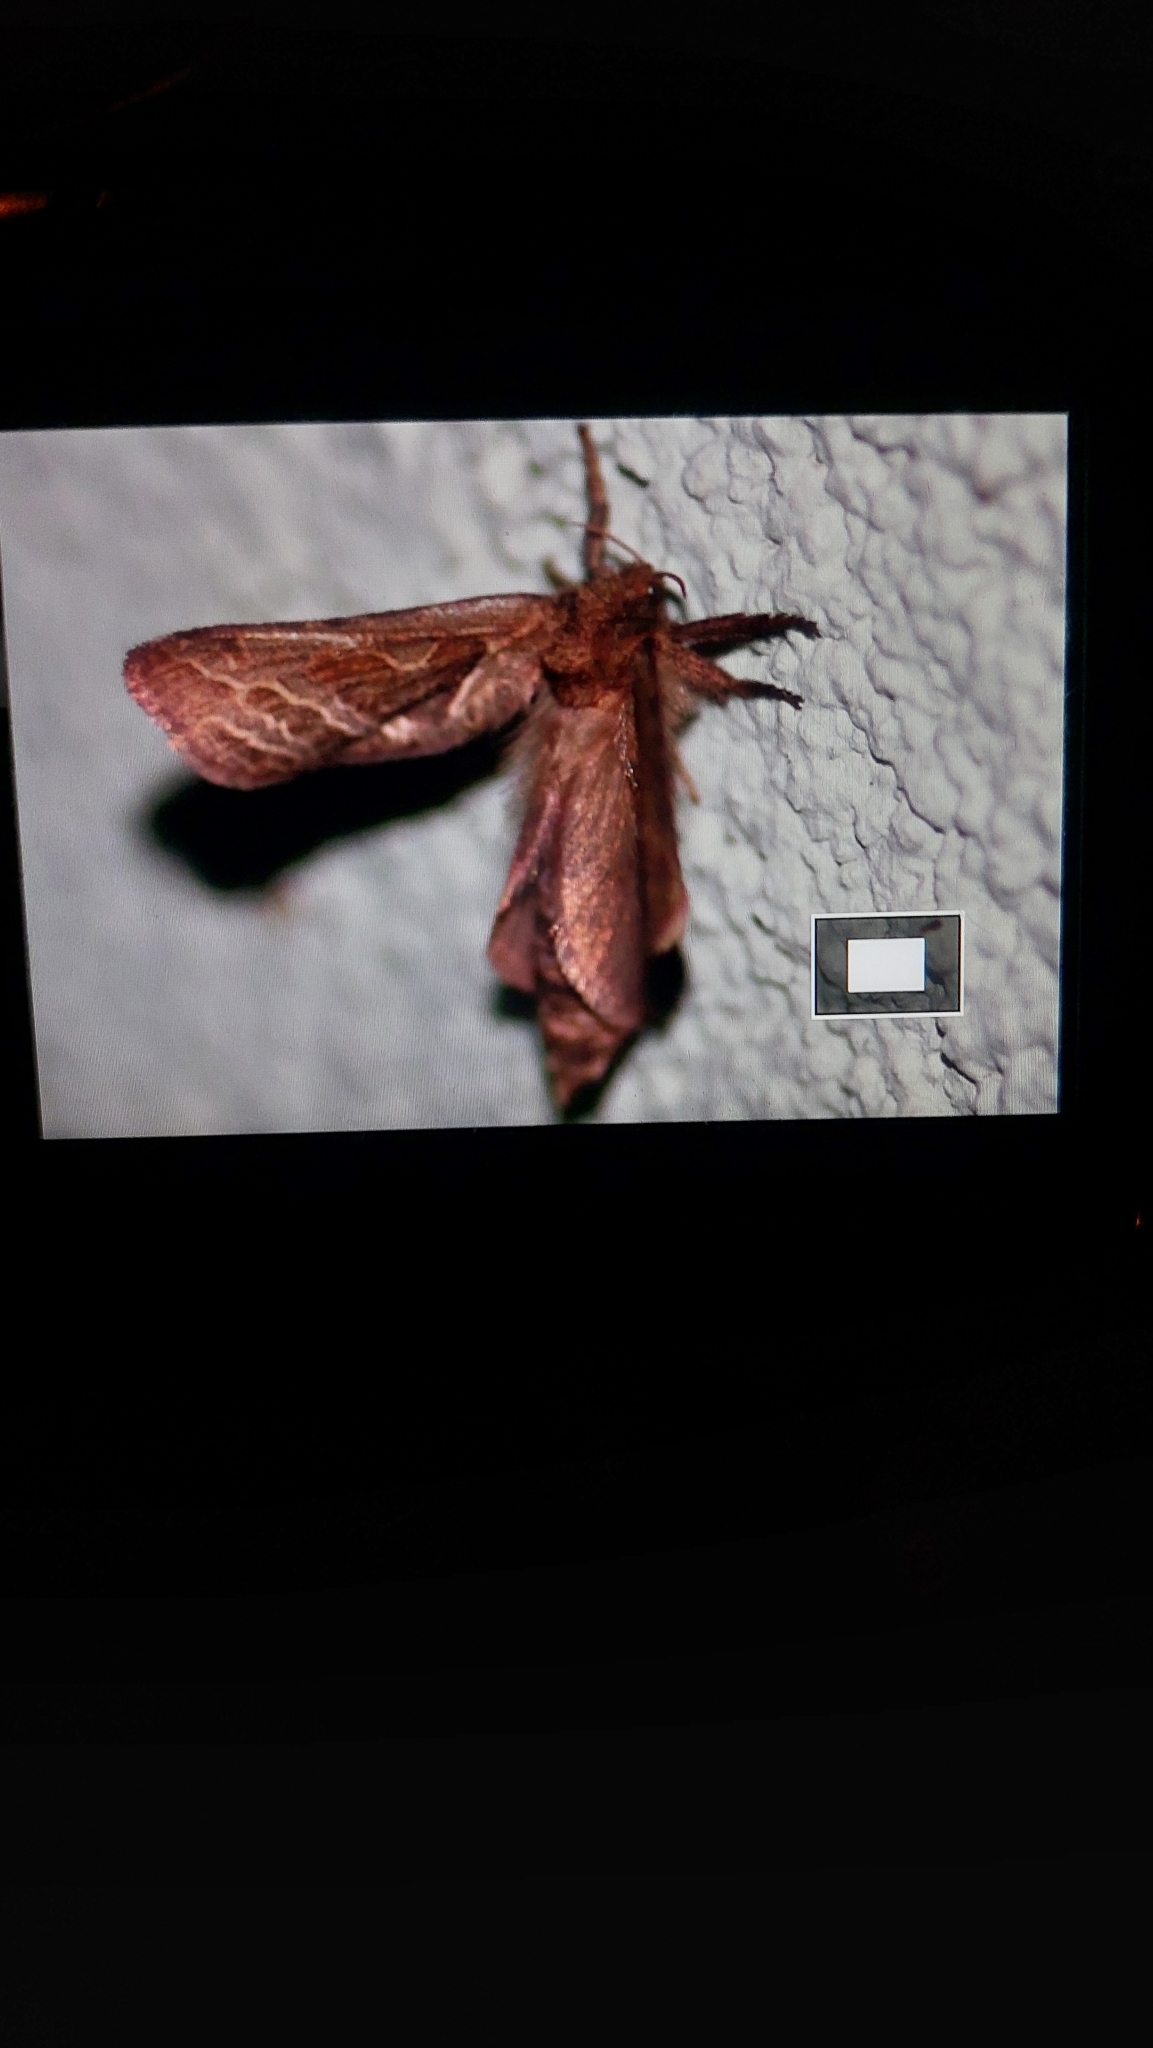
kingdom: Animalia
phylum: Arthropoda
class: Insecta
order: Lepidoptera
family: Hepialidae
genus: Triodia
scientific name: Triodia sylvina
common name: Orange swift
